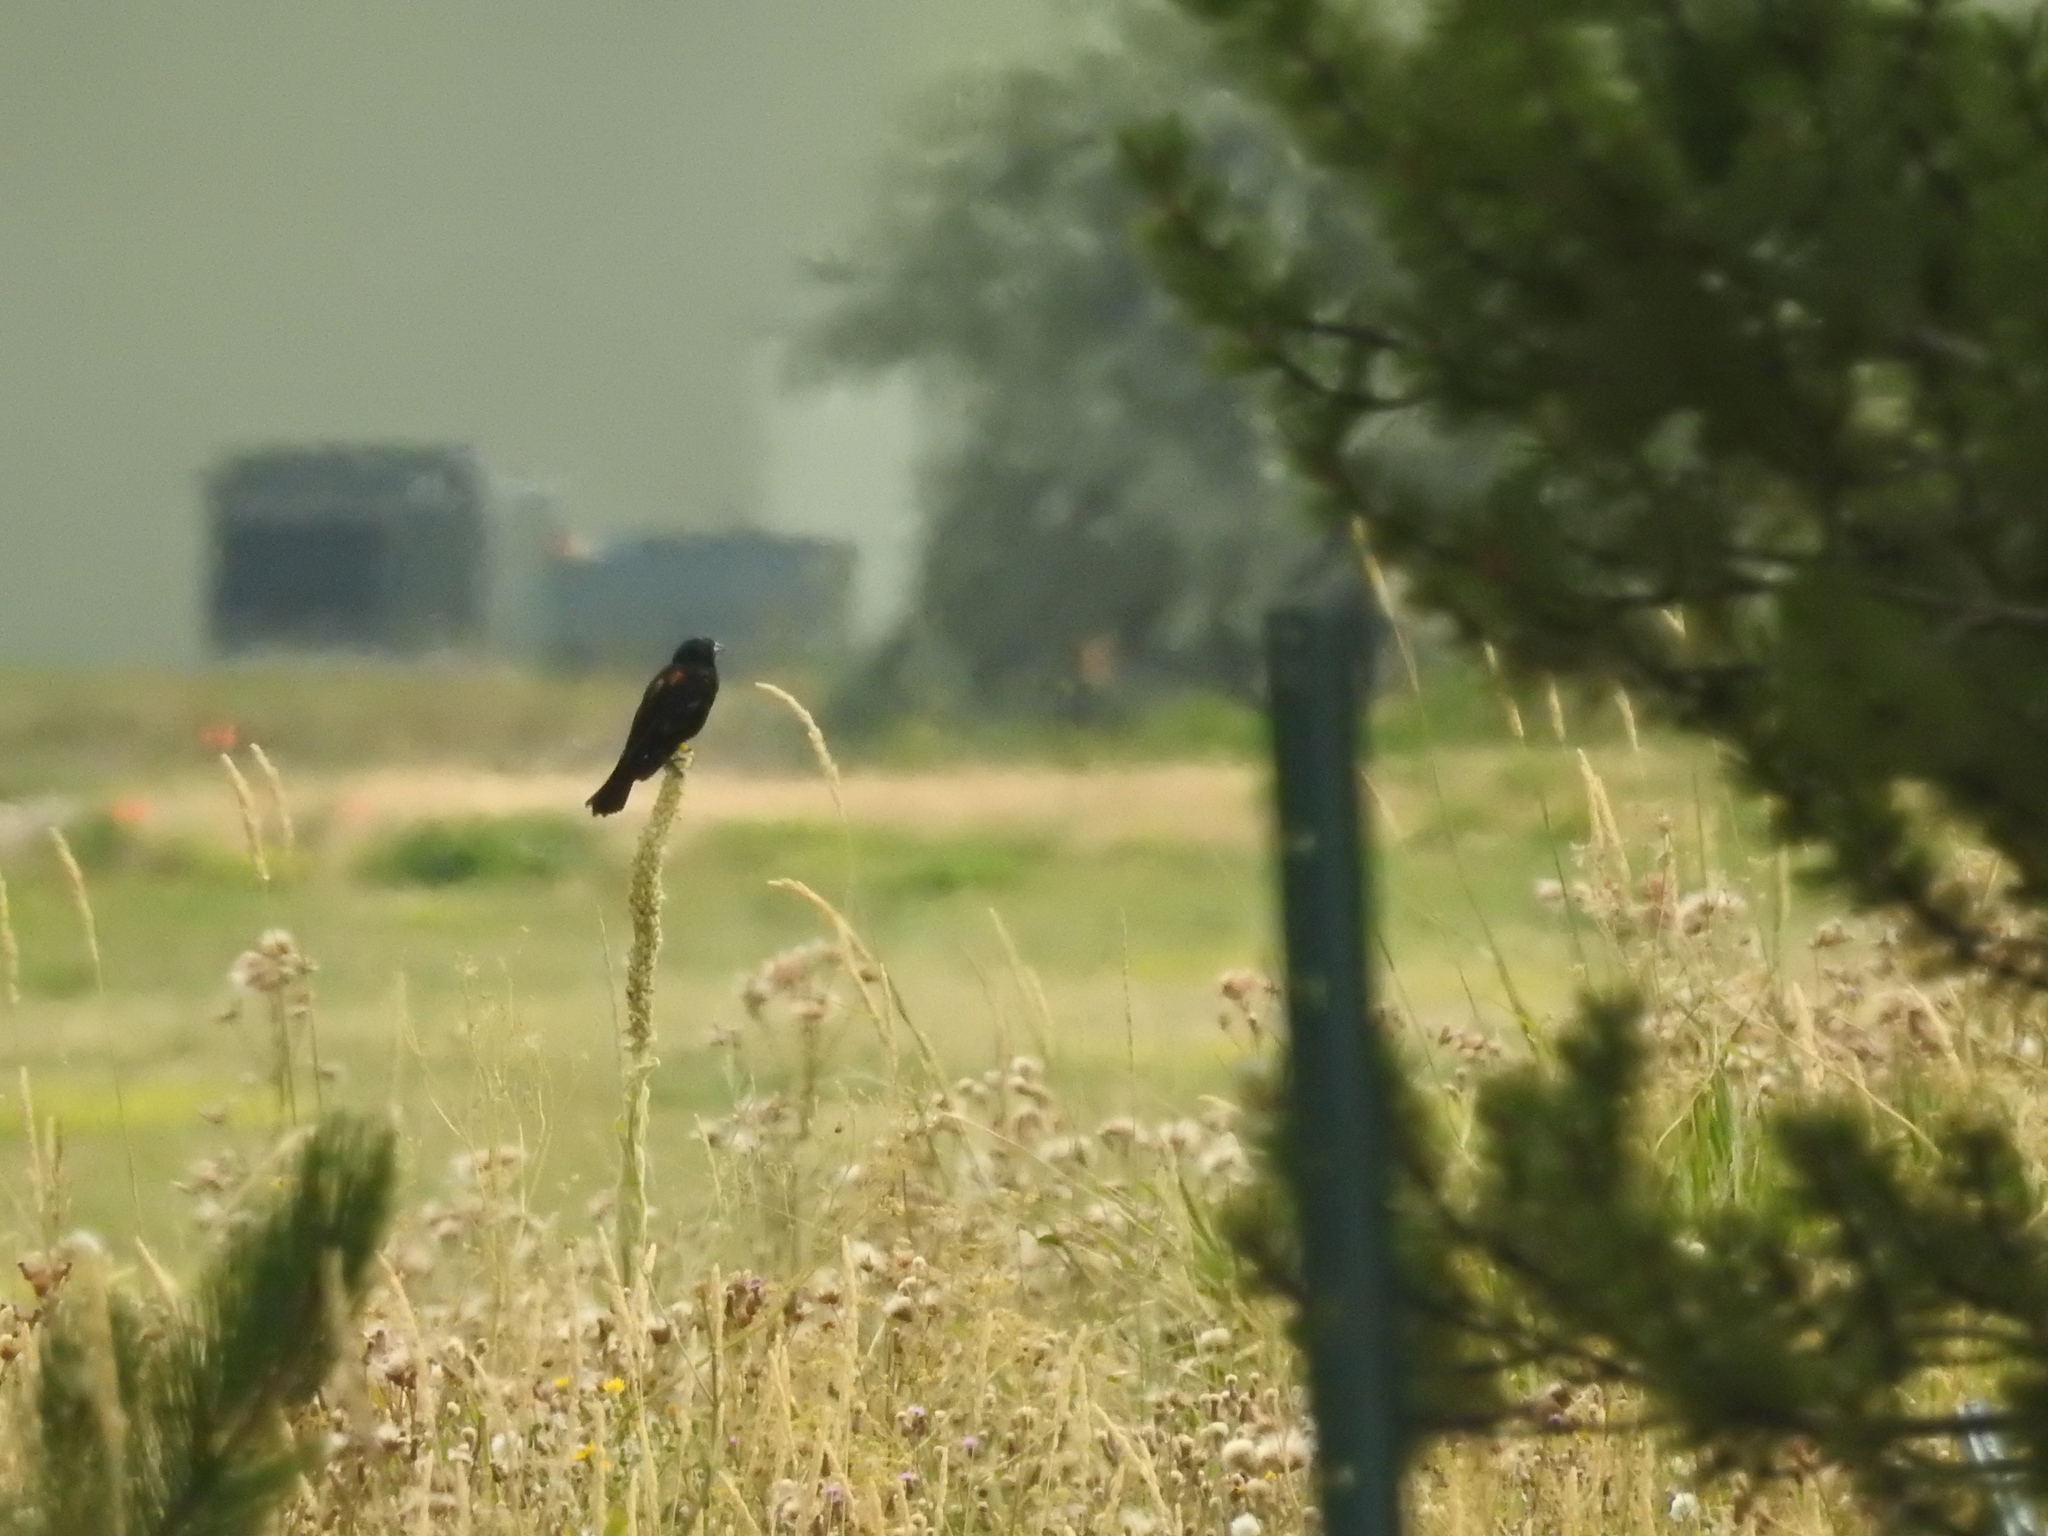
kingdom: Animalia
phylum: Chordata
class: Aves
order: Passeriformes
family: Icteridae
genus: Agelaius
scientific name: Agelaius phoeniceus
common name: Red-winged blackbird
